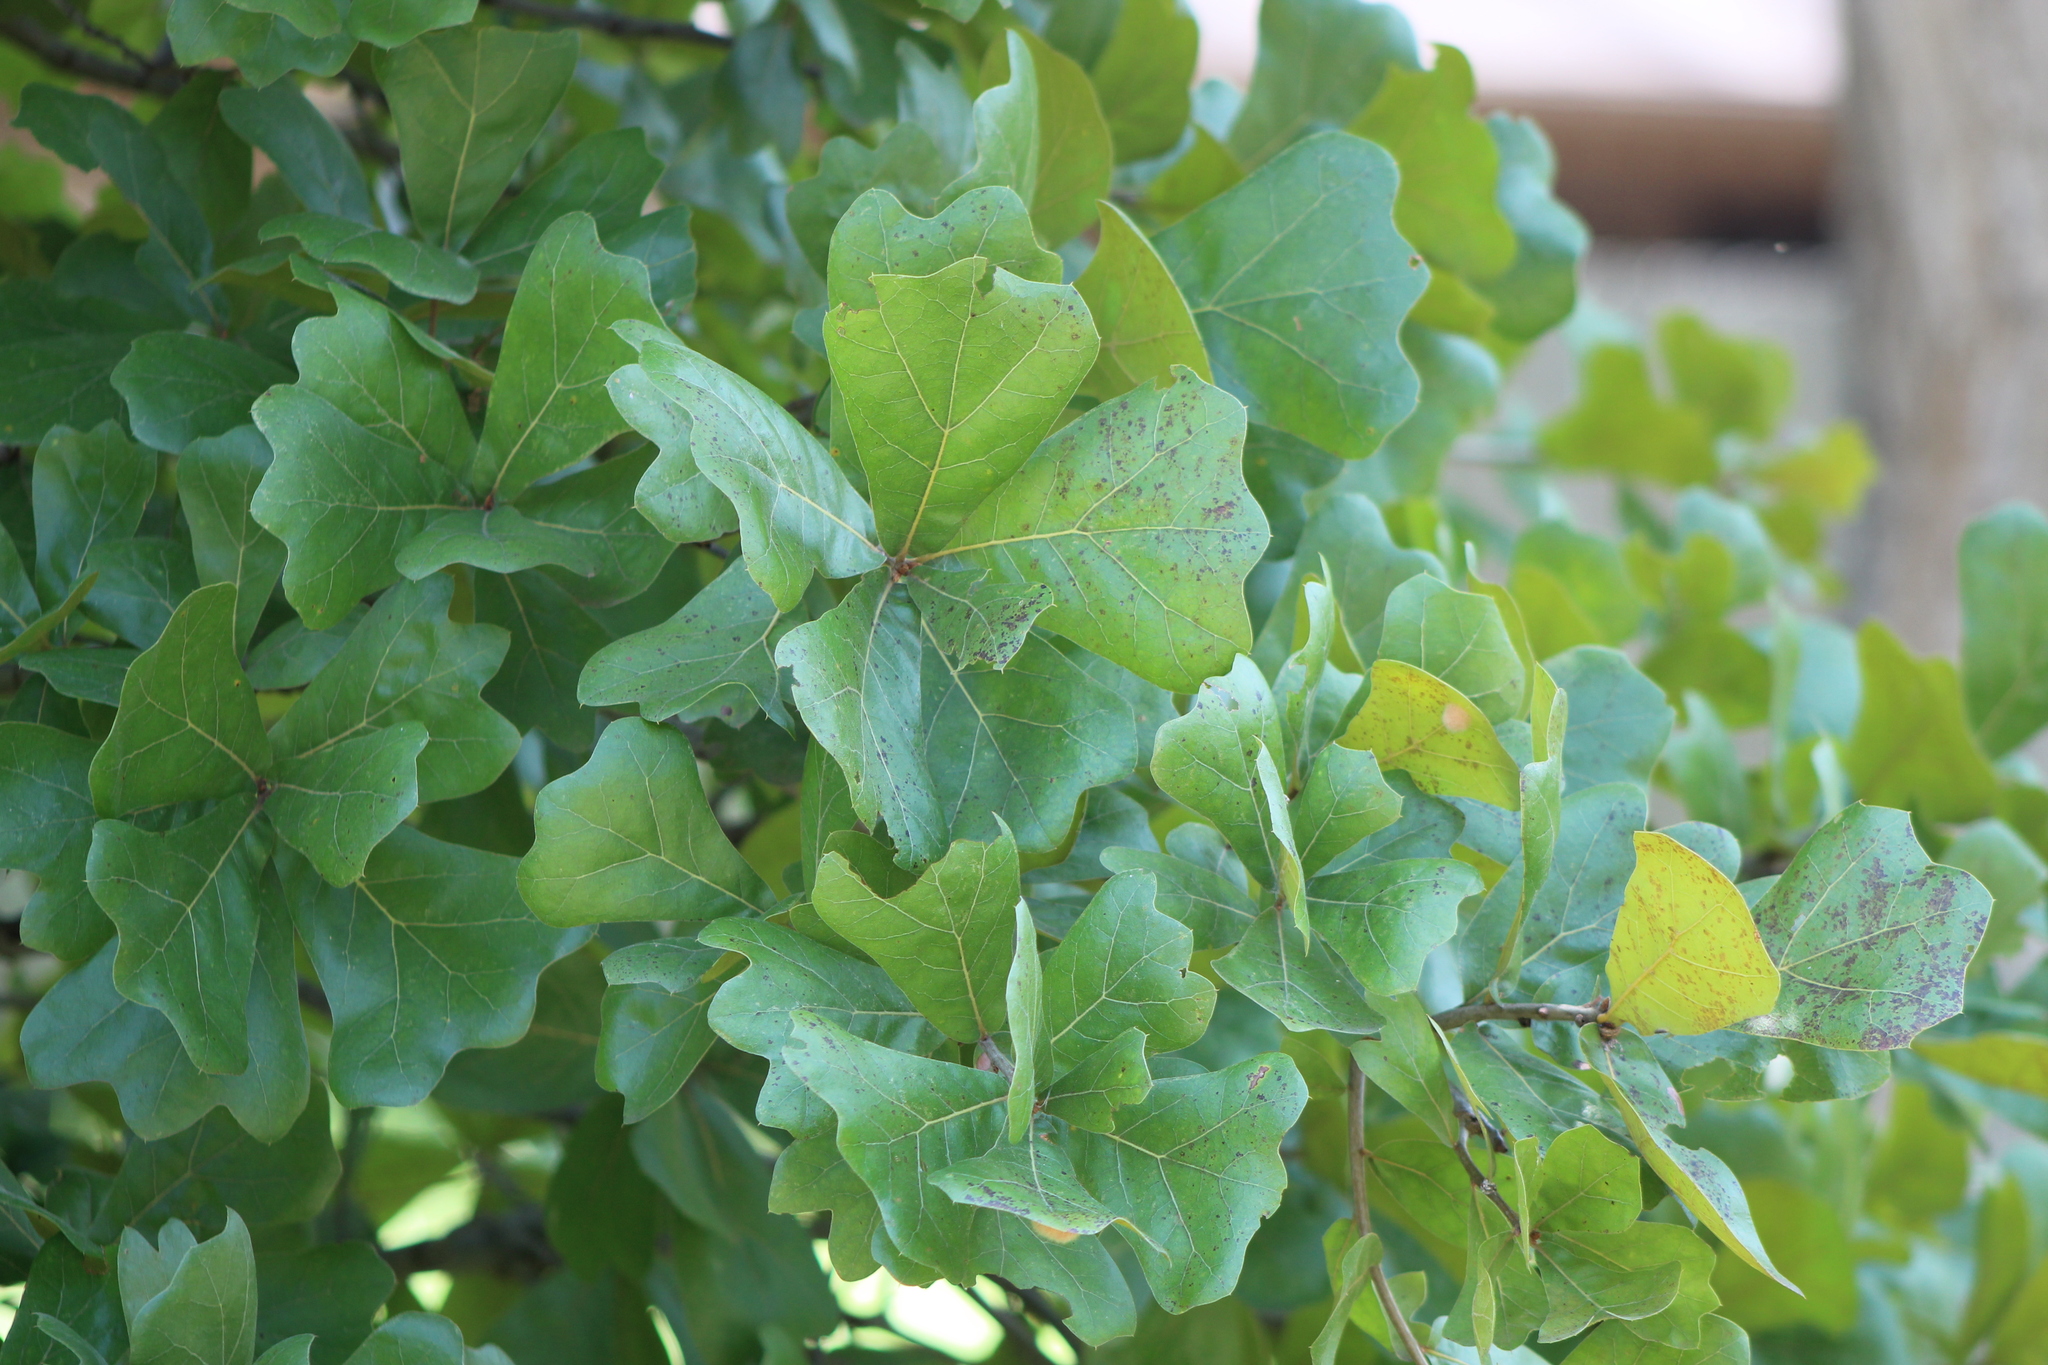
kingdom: Plantae
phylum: Tracheophyta
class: Magnoliopsida
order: Fagales
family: Fagaceae
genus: Quercus
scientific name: Quercus marilandica
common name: Blackjack oak
